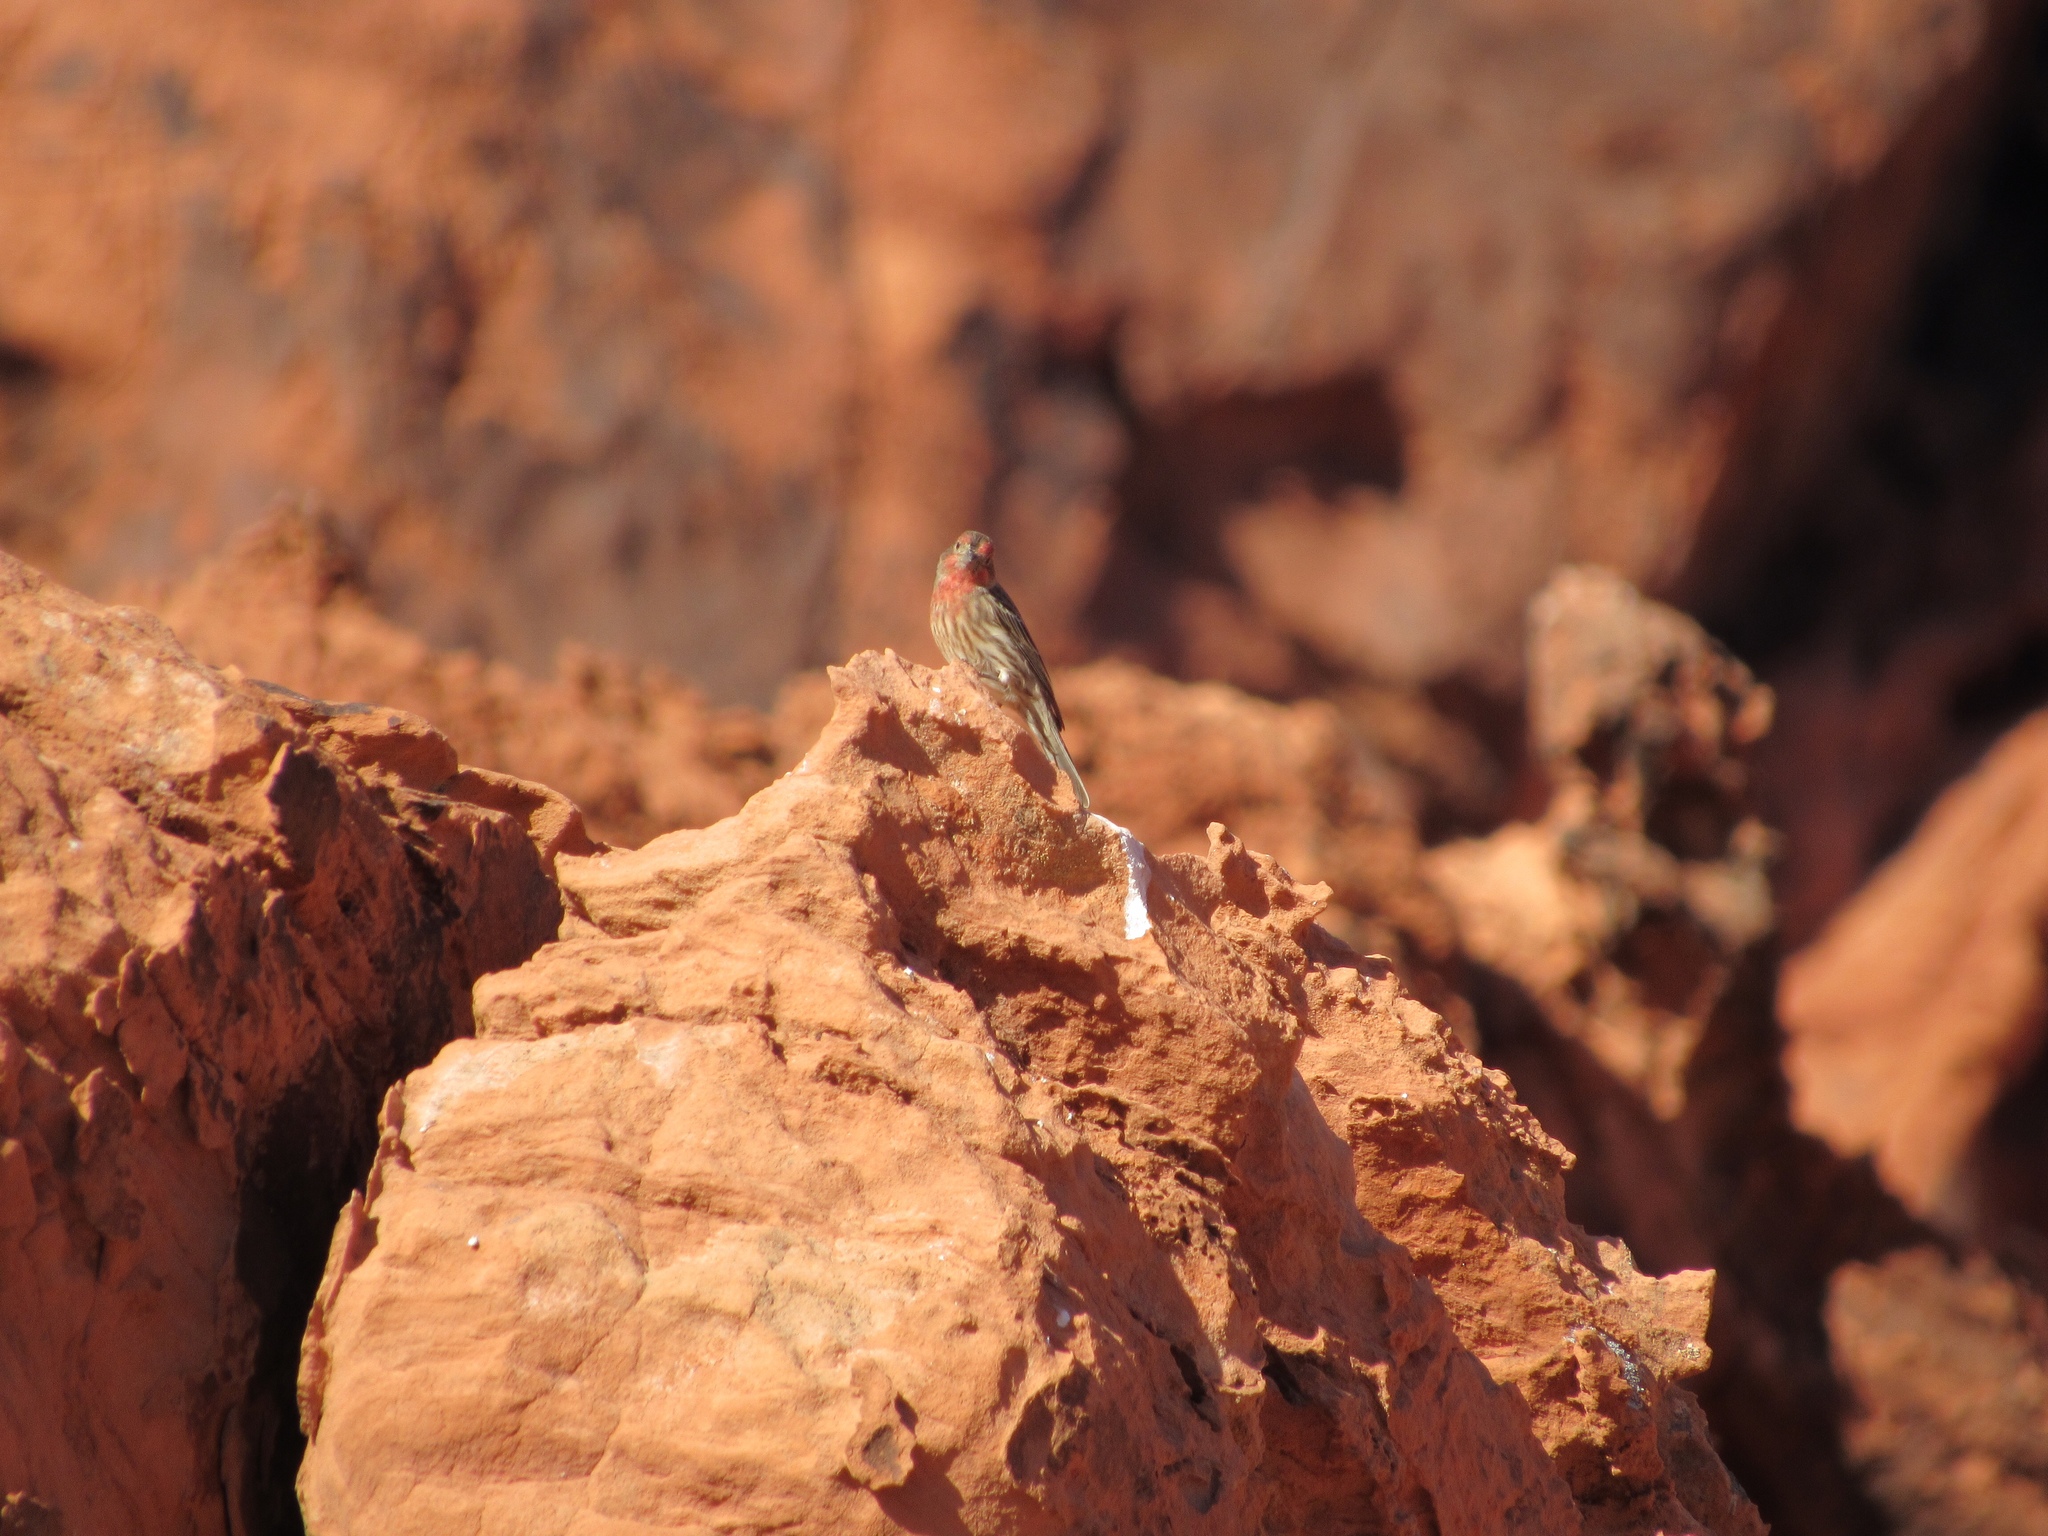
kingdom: Animalia
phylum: Chordata
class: Aves
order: Passeriformes
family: Fringillidae
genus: Haemorhous
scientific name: Haemorhous mexicanus
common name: House finch
